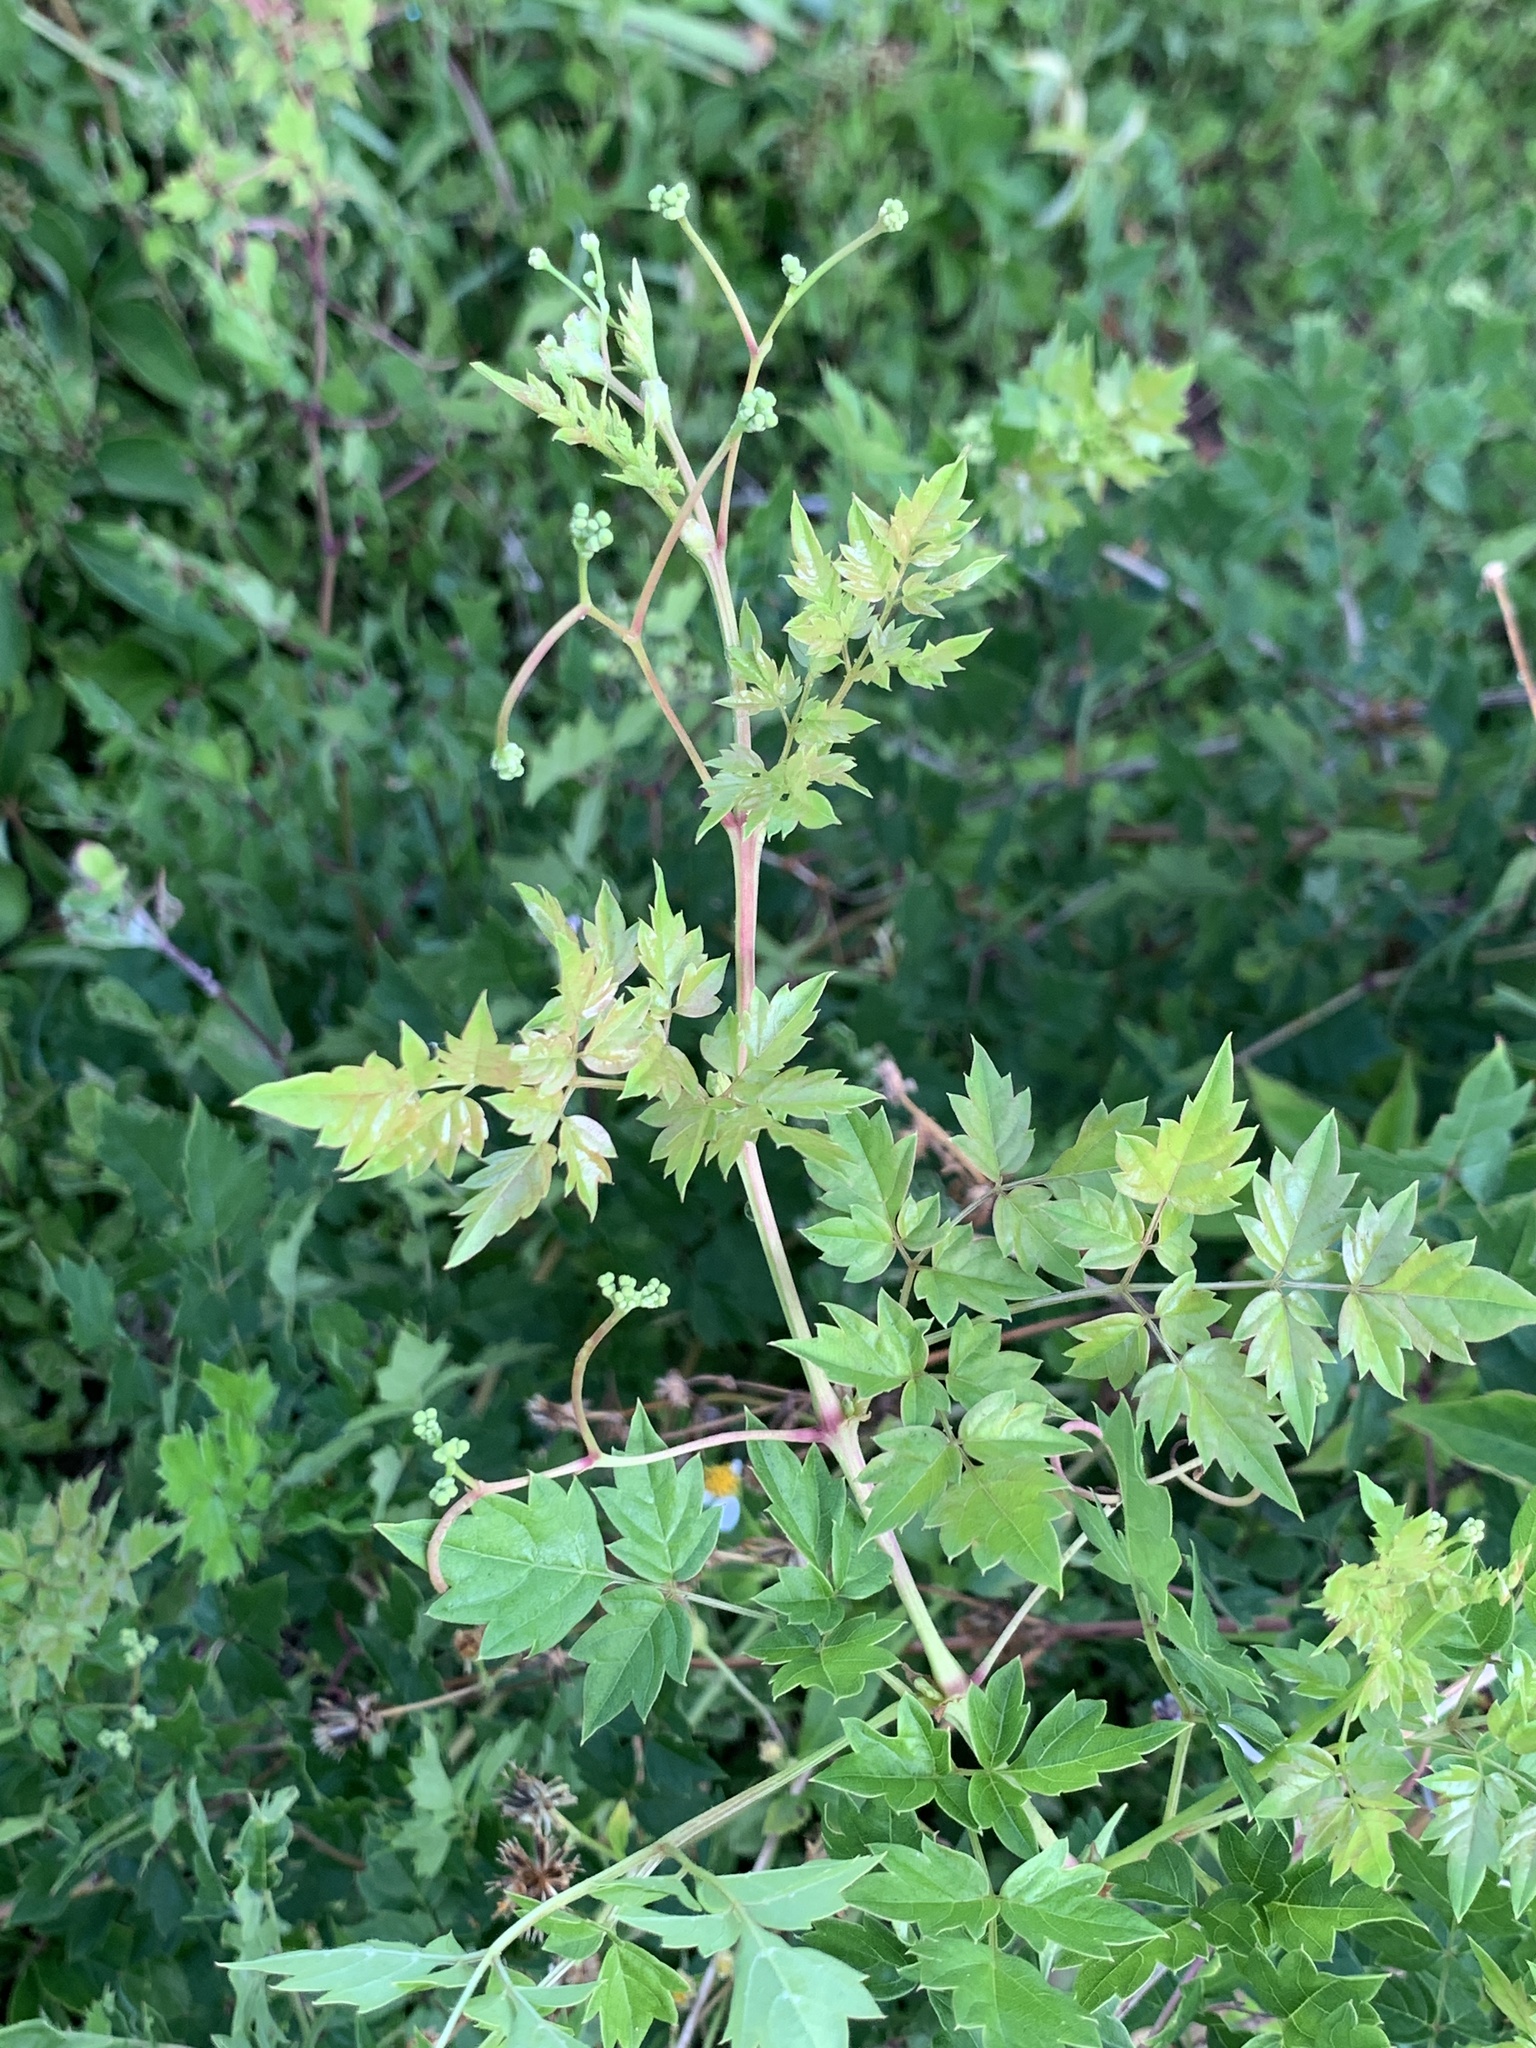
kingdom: Plantae
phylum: Tracheophyta
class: Magnoliopsida
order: Vitales
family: Vitaceae
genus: Nekemias
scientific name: Nekemias arborea
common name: Peppervine
